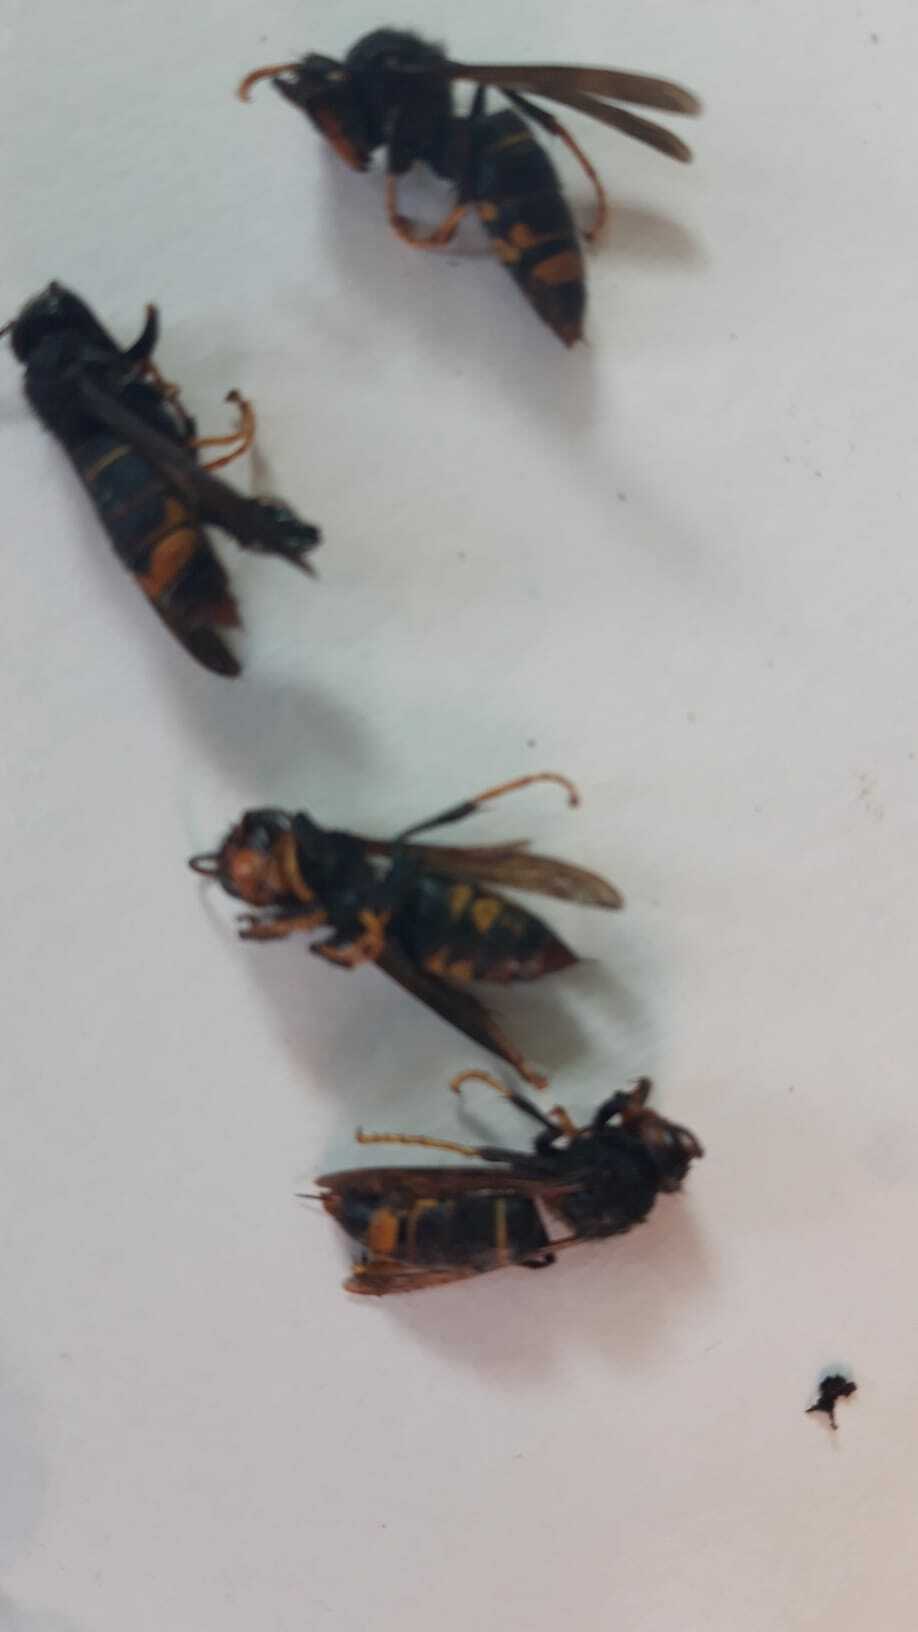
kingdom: Animalia
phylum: Arthropoda
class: Insecta
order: Hymenoptera
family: Vespidae
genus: Vespa
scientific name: Vespa velutina
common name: Asian hornet
